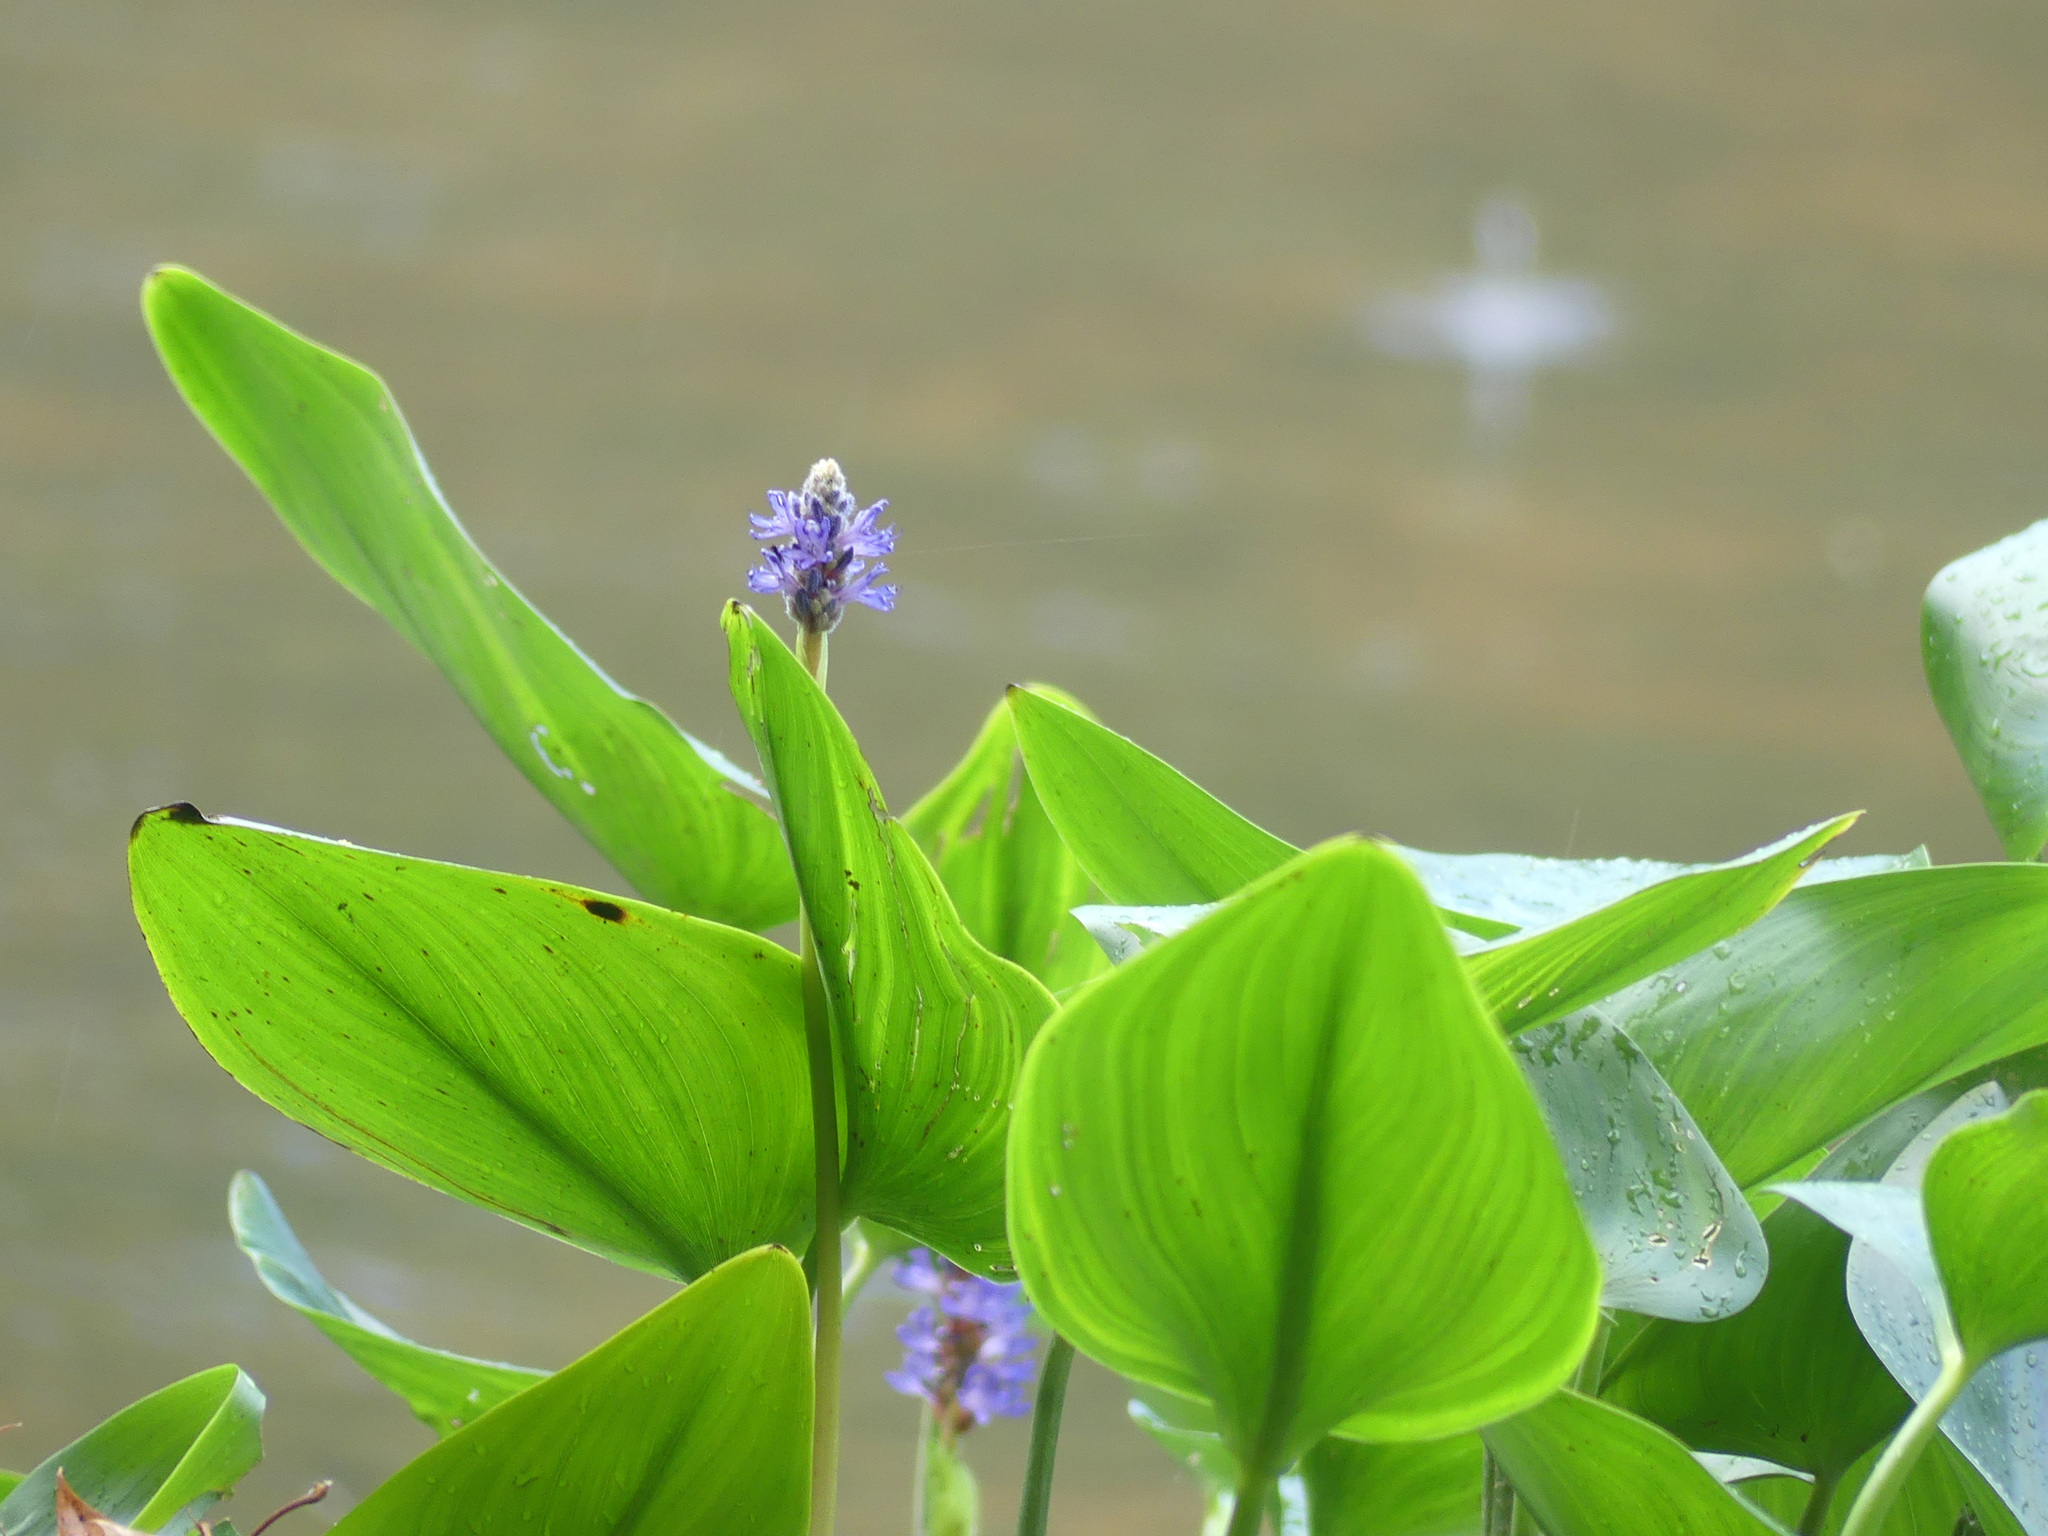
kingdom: Plantae
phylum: Tracheophyta
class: Liliopsida
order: Commelinales
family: Pontederiaceae
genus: Pontederia
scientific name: Pontederia cordata
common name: Pickerelweed
